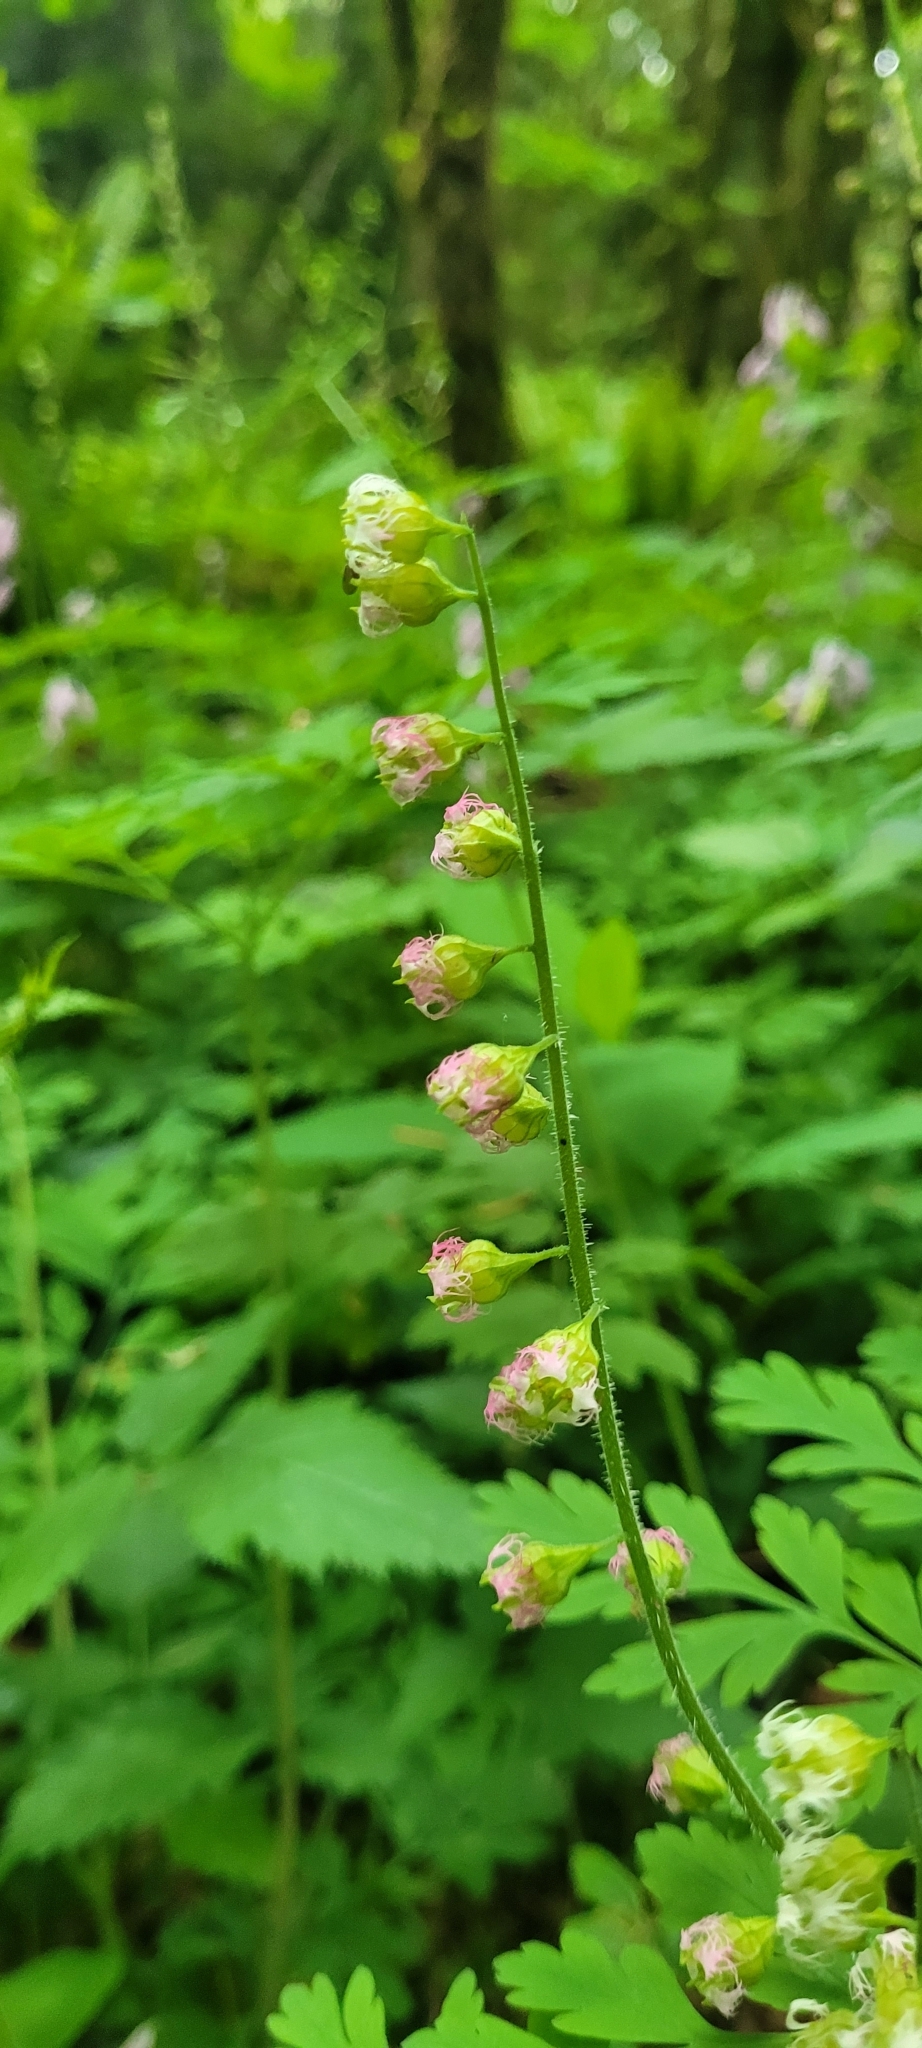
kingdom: Plantae
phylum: Tracheophyta
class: Magnoliopsida
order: Saxifragales
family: Saxifragaceae
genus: Tellima
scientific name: Tellima grandiflora
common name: Fringecups
